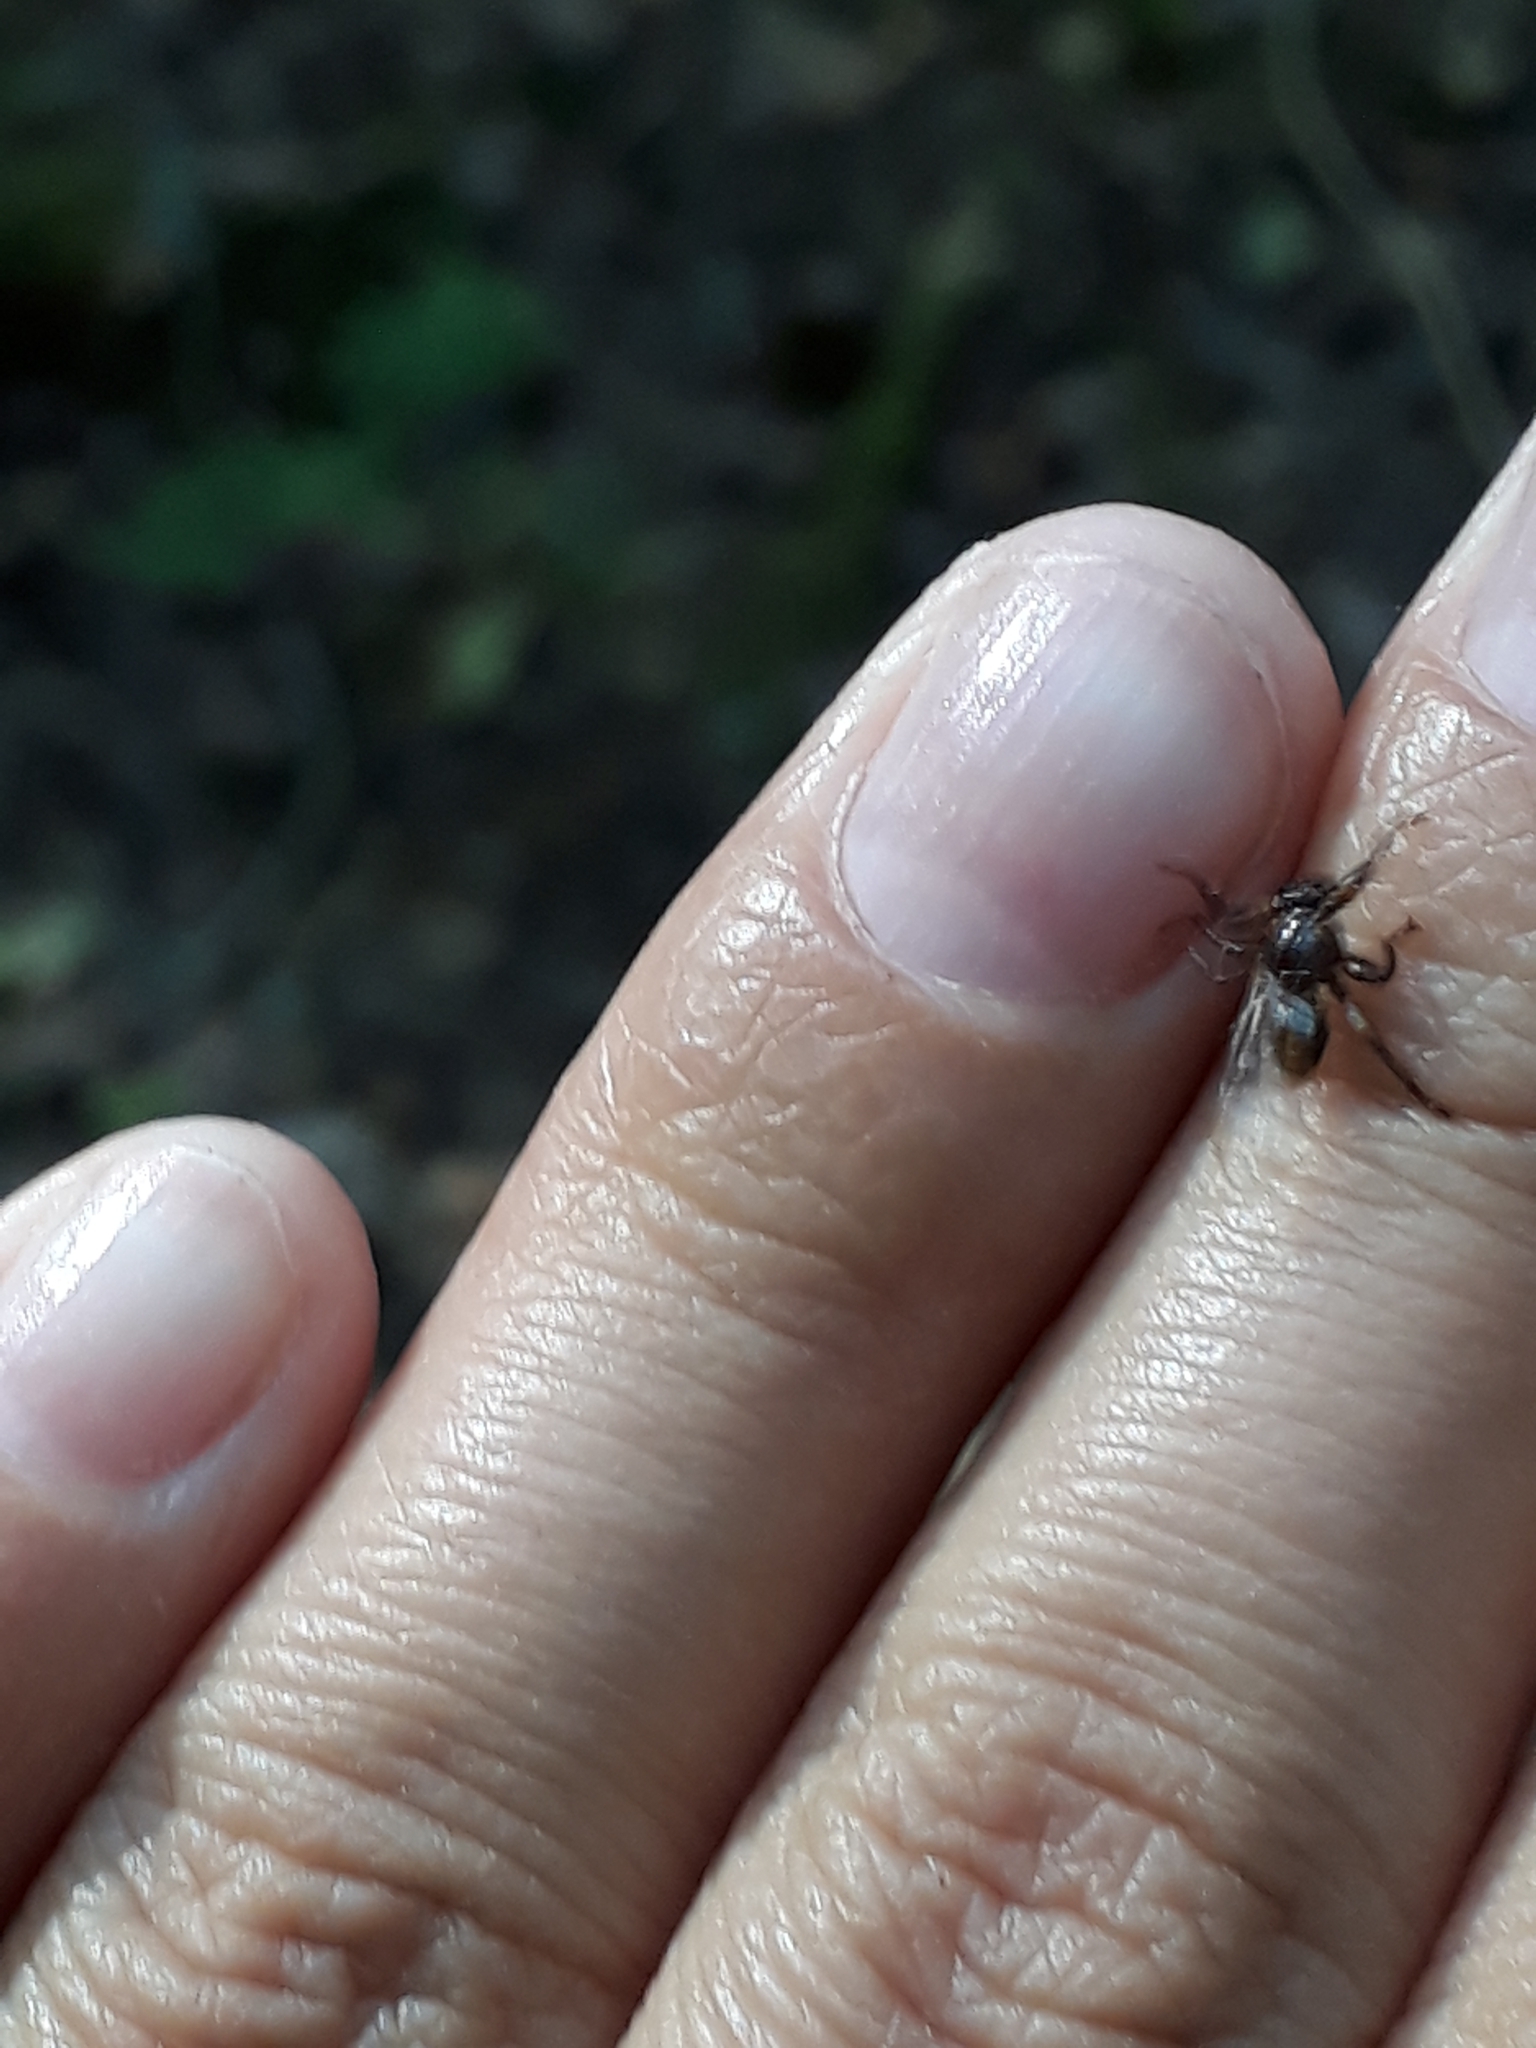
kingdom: Animalia
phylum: Arthropoda
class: Insecta
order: Diptera
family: Hippoboscidae
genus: Lipoptena
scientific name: Lipoptena cervi
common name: Deer ked
